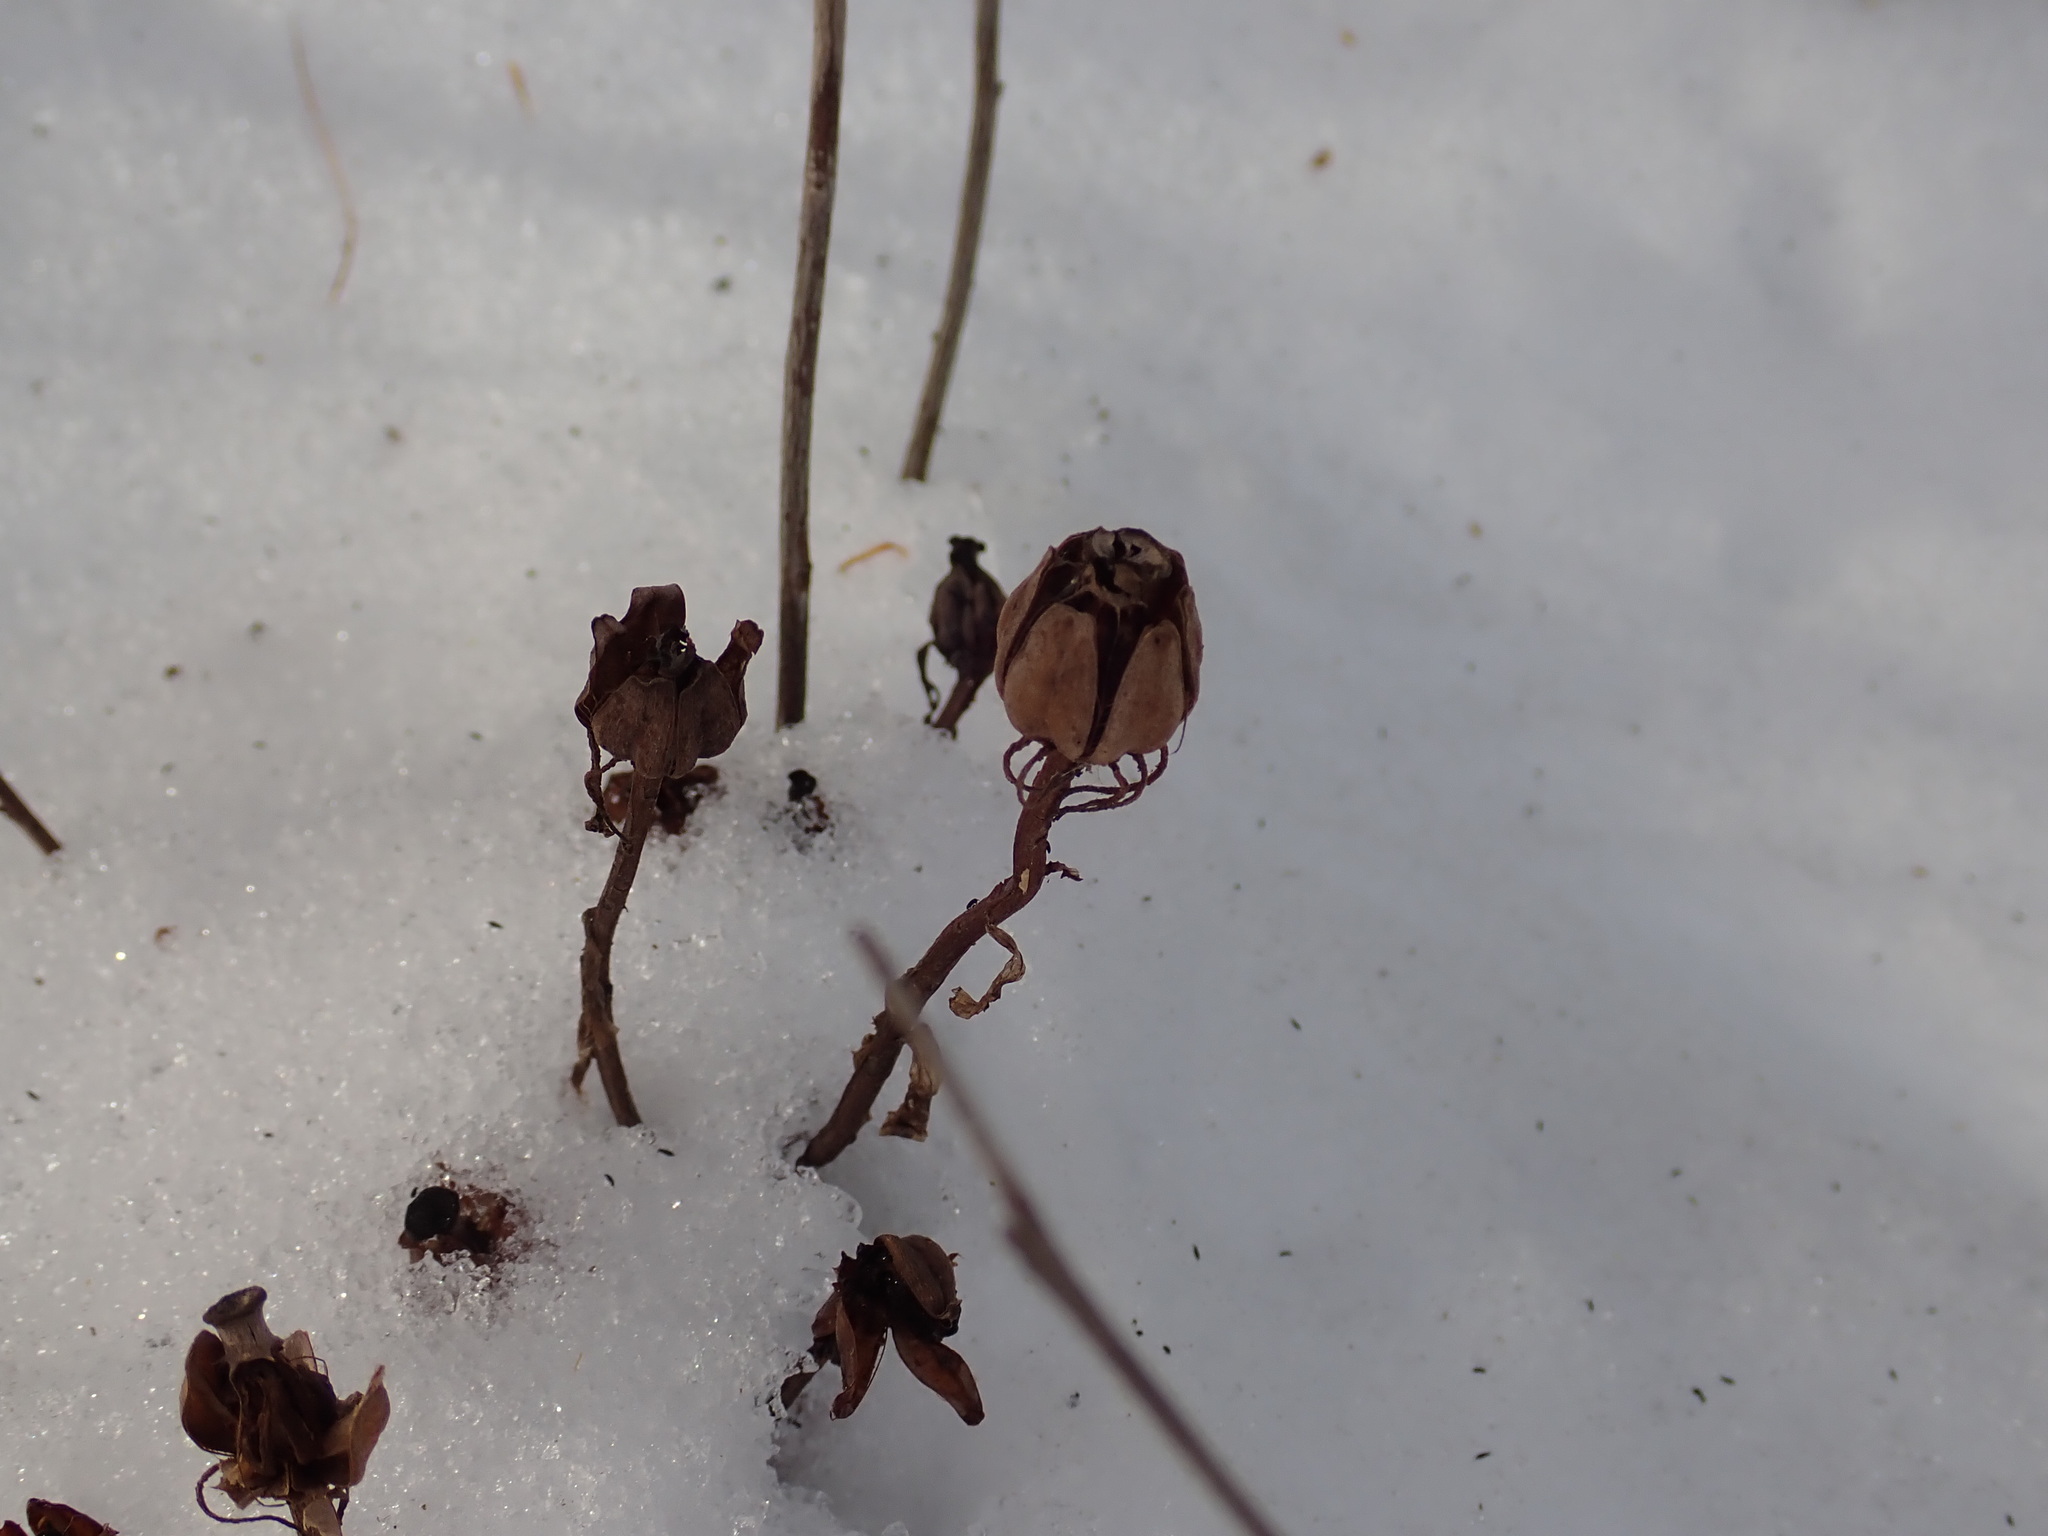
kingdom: Plantae
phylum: Tracheophyta
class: Magnoliopsida
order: Ericales
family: Ericaceae
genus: Monotropa
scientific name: Monotropa uniflora
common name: Convulsion root
